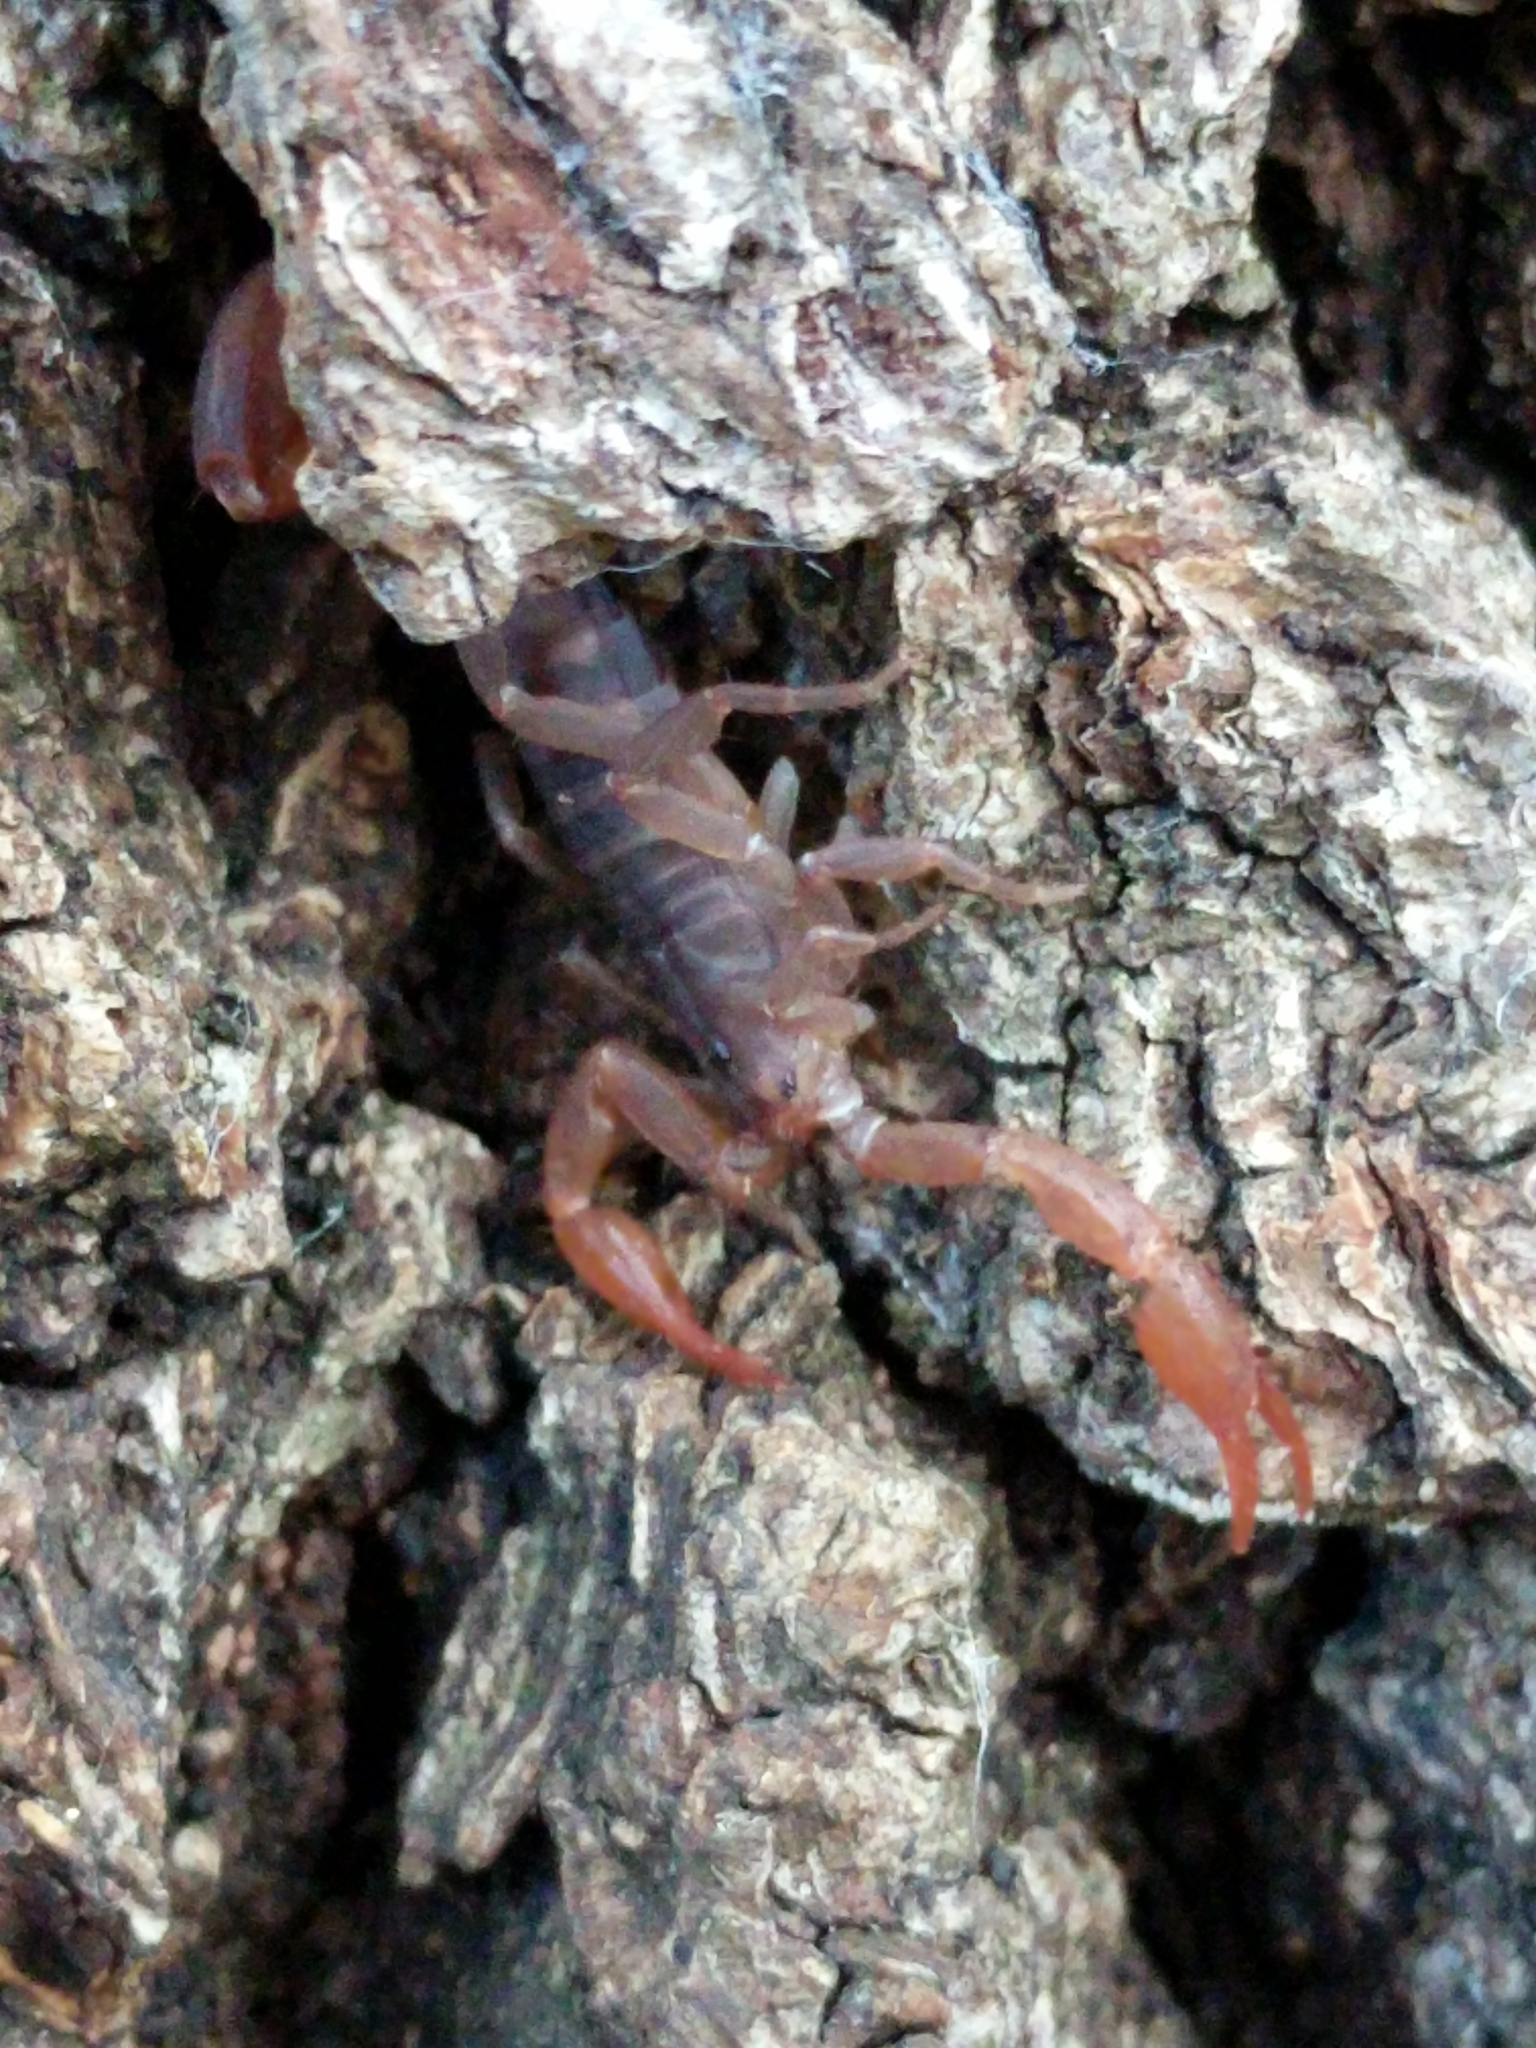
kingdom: Animalia
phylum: Arthropoda
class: Arachnida
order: Scorpiones
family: Vaejovidae
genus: Pseudouroctonus
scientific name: Pseudouroctonus reddelli
